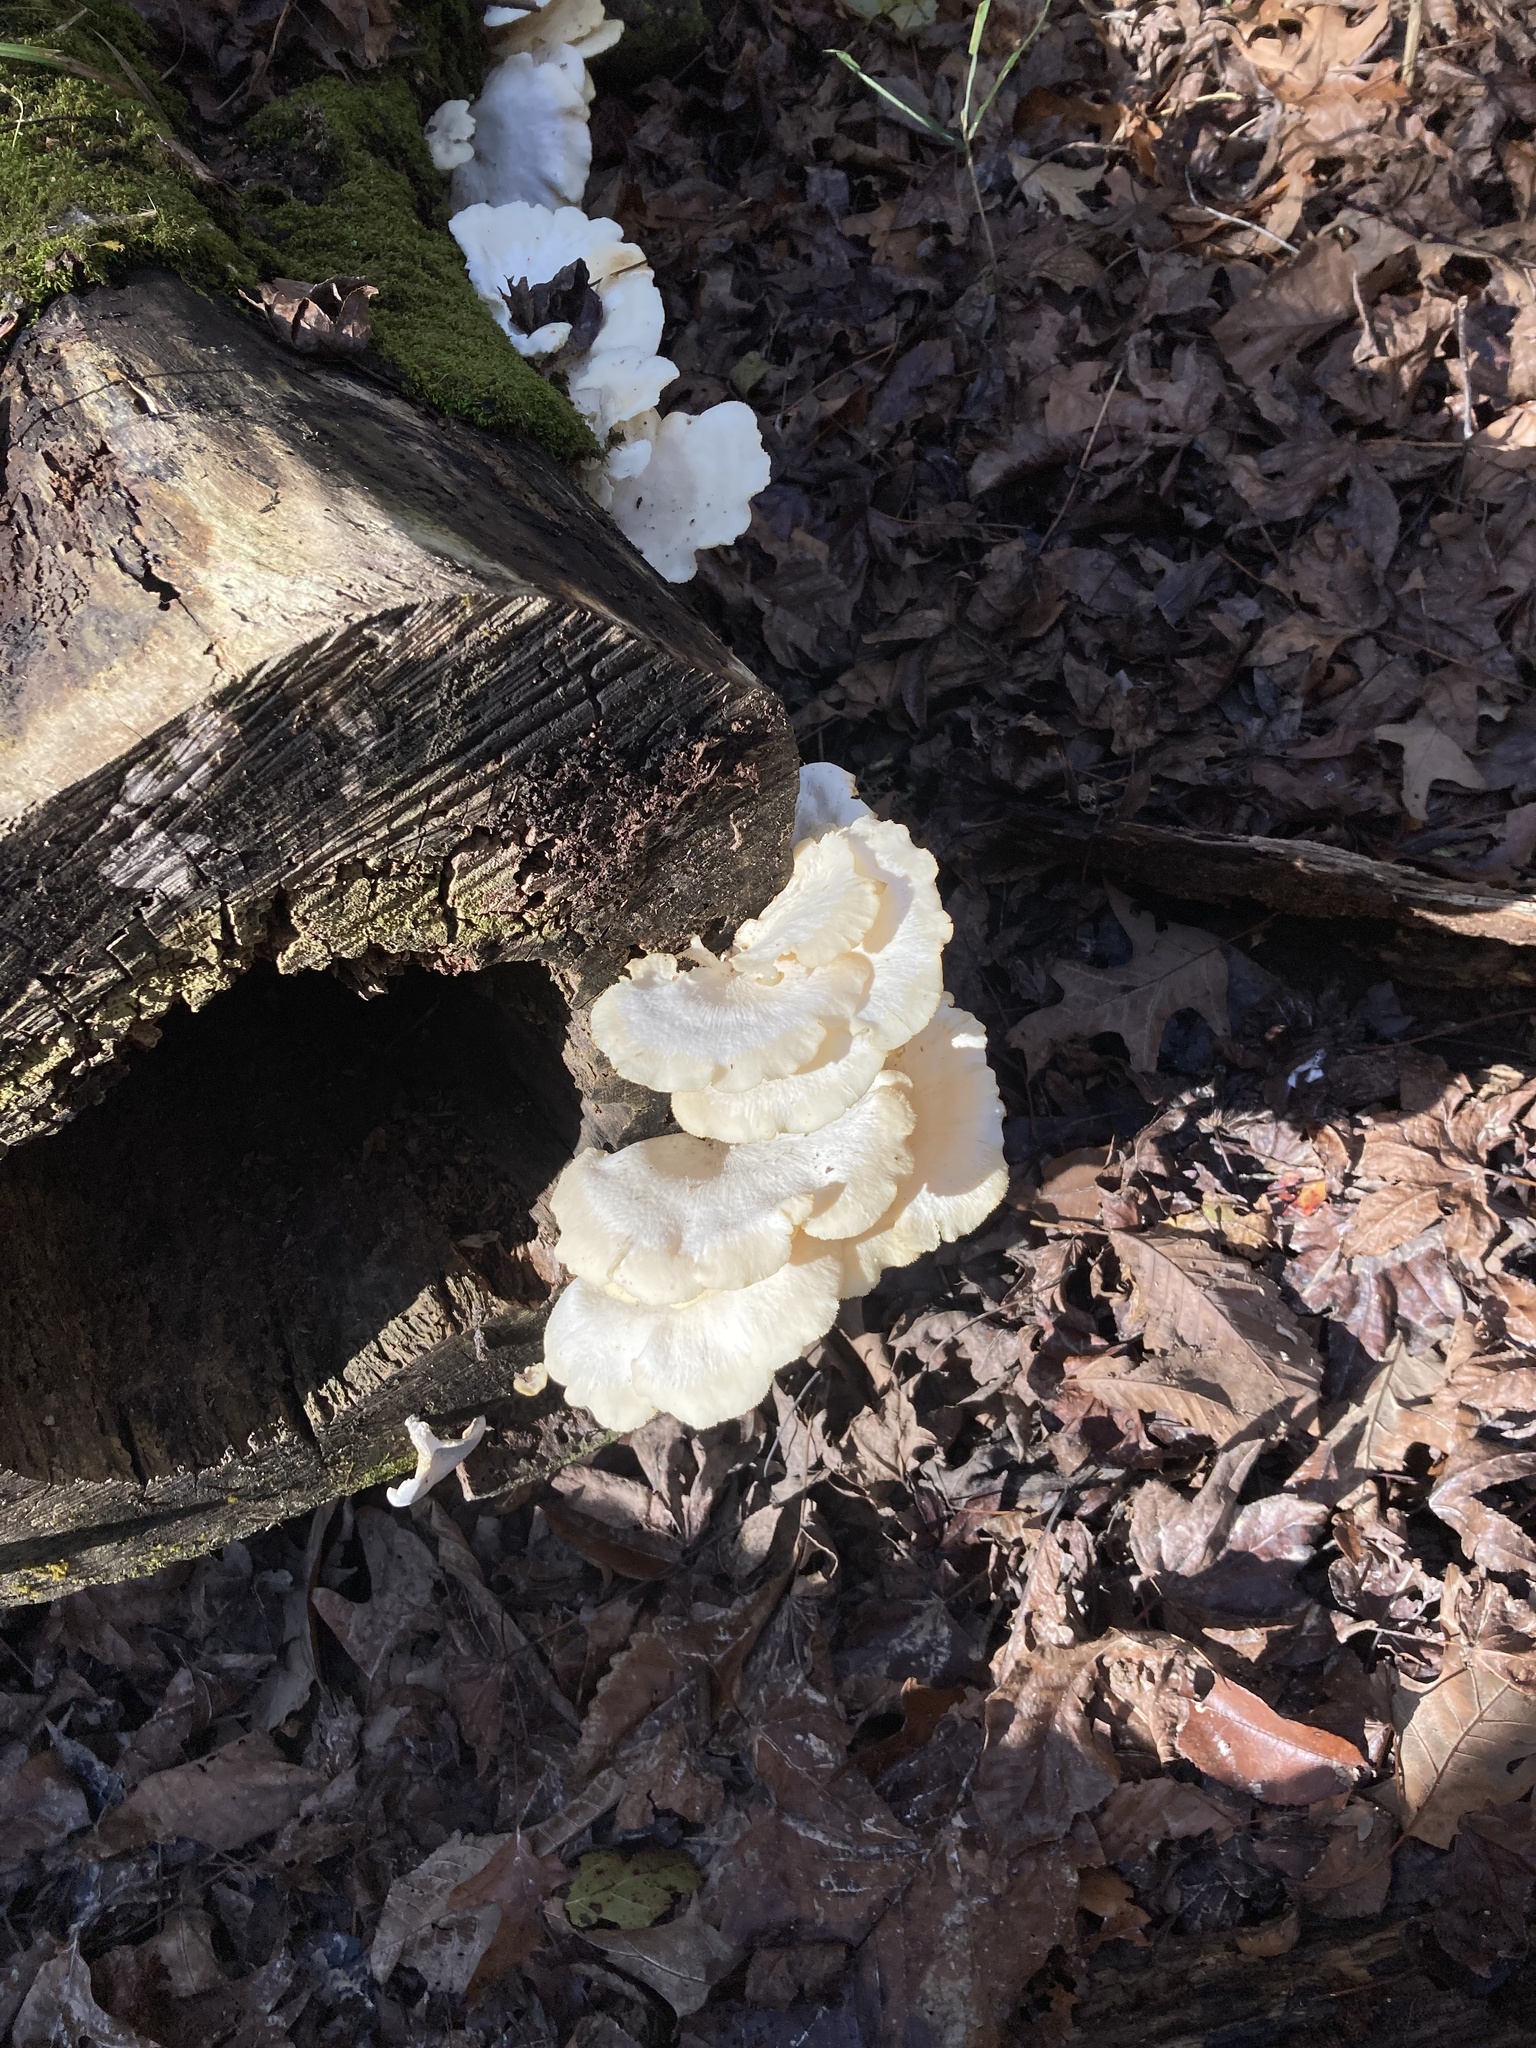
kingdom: Fungi
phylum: Basidiomycota
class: Agaricomycetes
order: Polyporales
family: Polyporaceae
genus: Favolus
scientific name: Favolus tenuiculus
